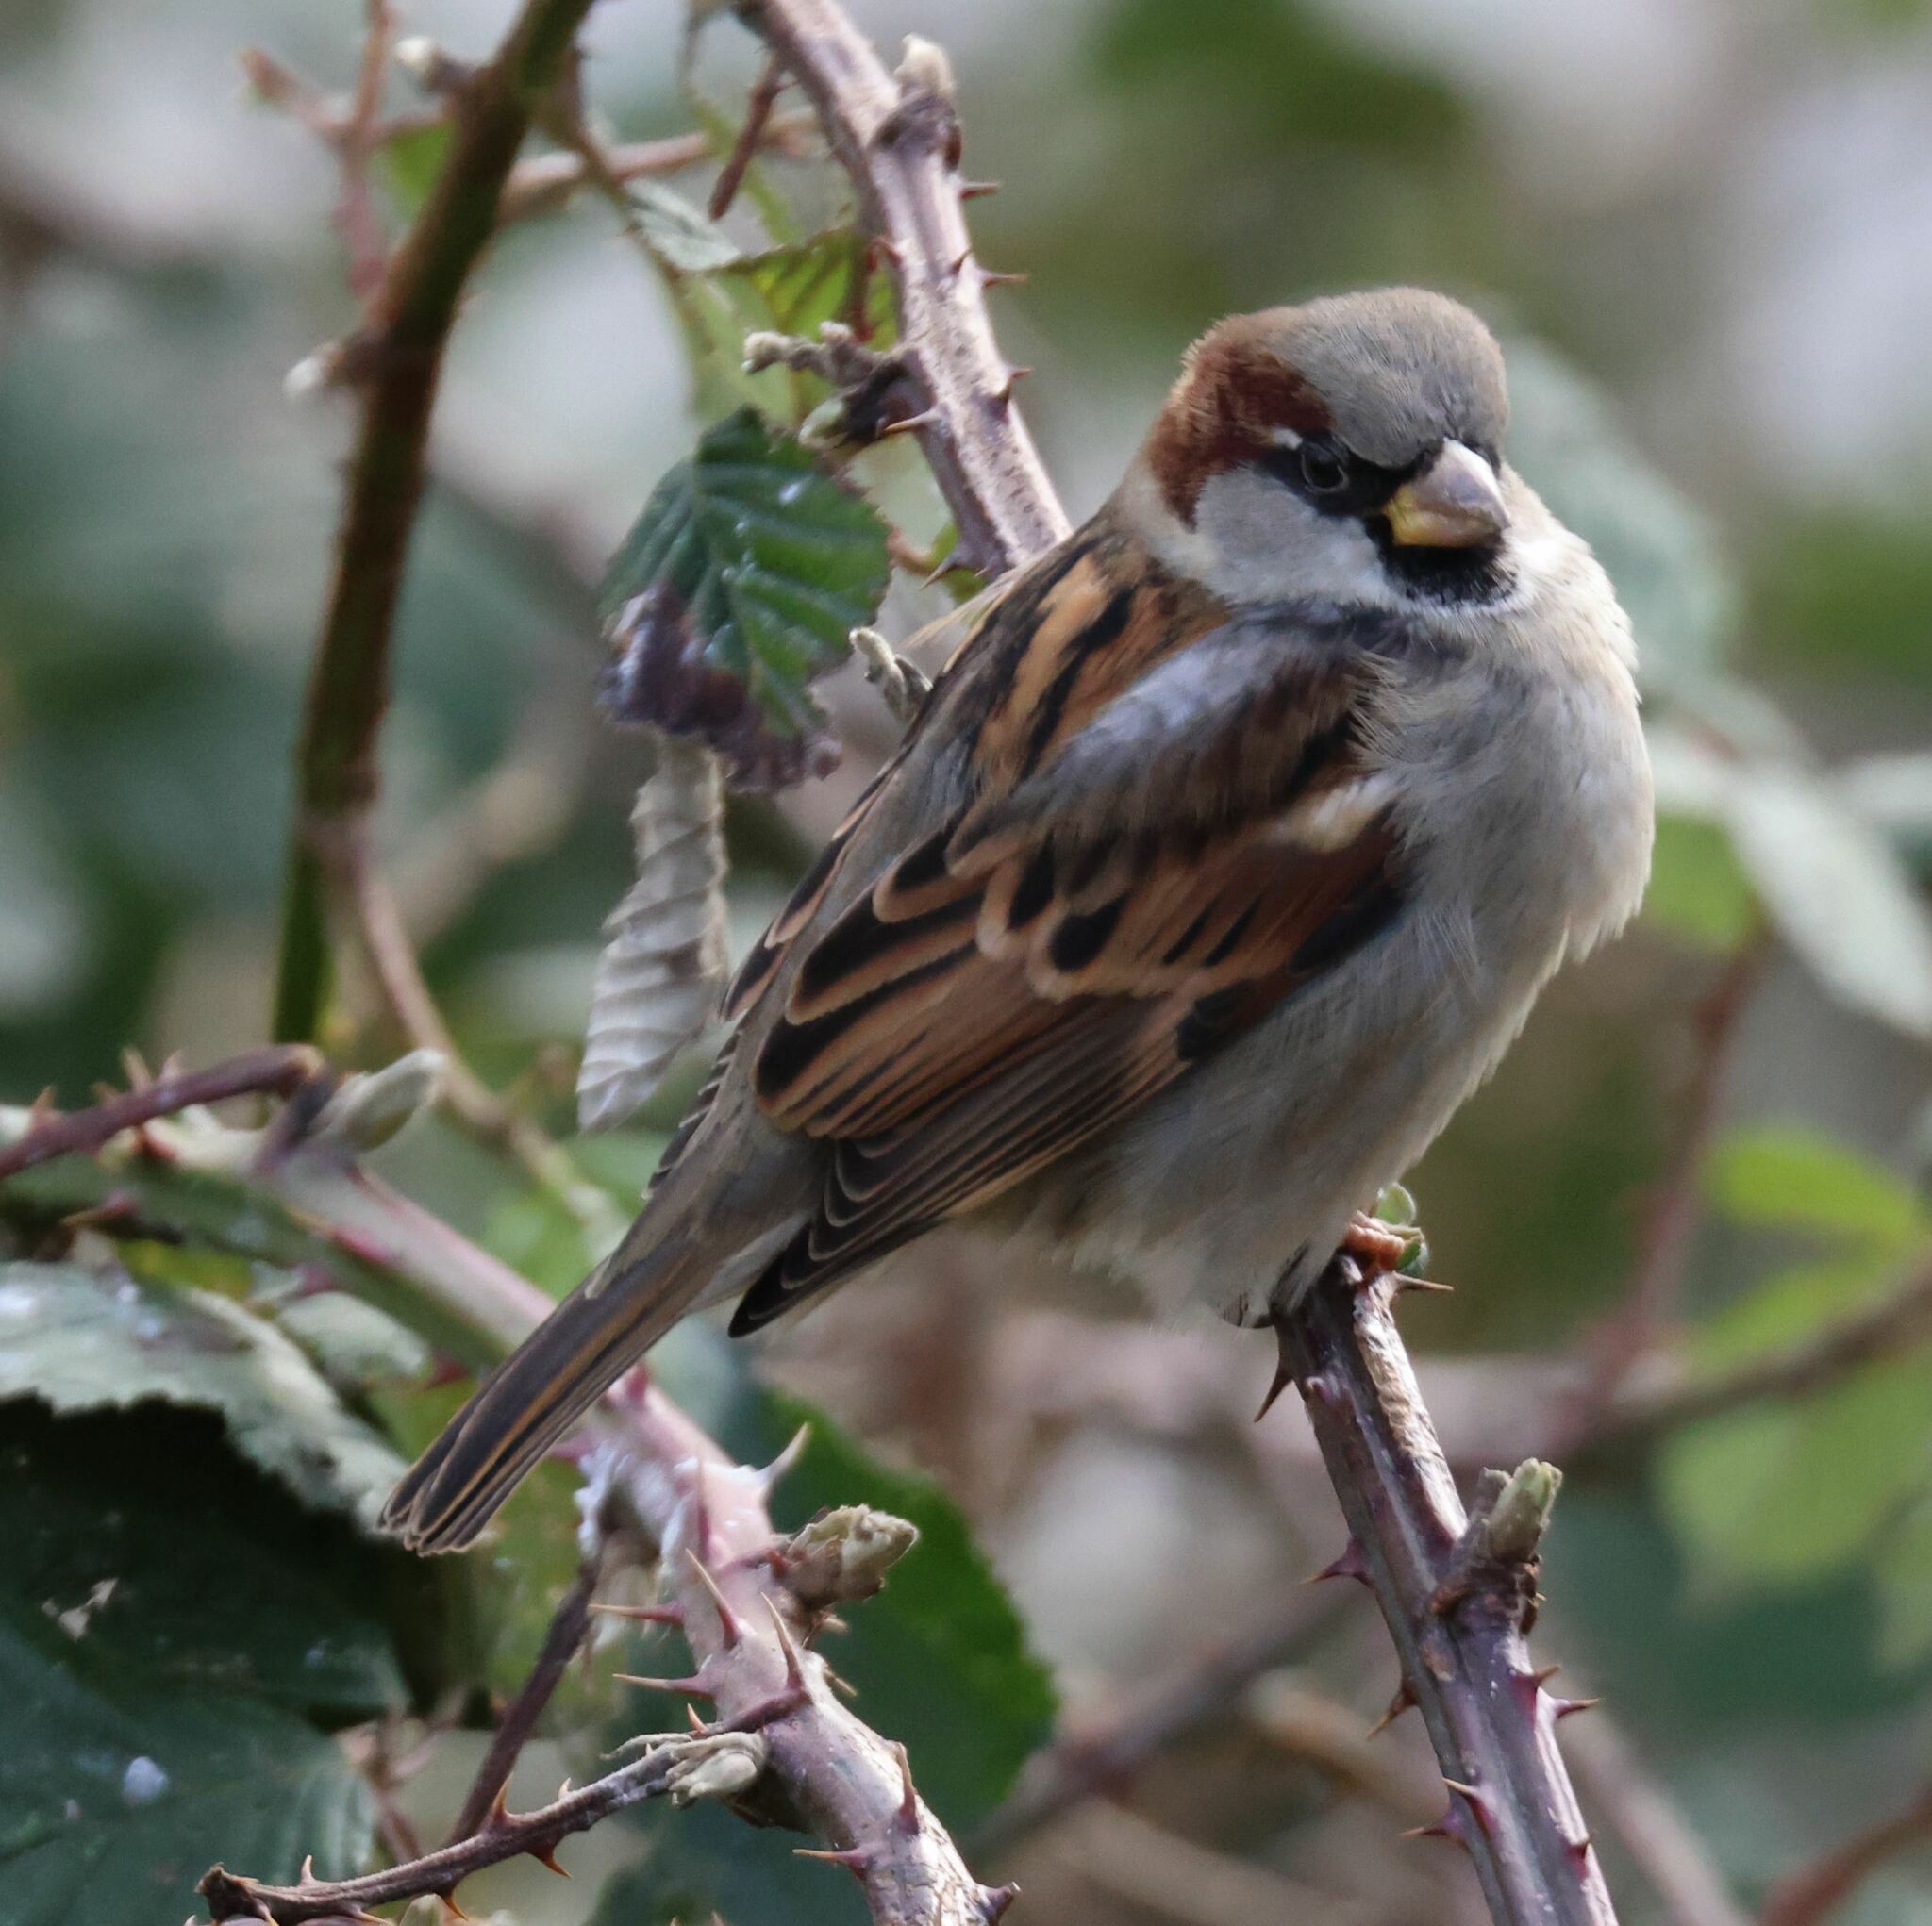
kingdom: Animalia
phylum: Chordata
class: Aves
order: Passeriformes
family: Passeridae
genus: Passer
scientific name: Passer domesticus
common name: House sparrow
